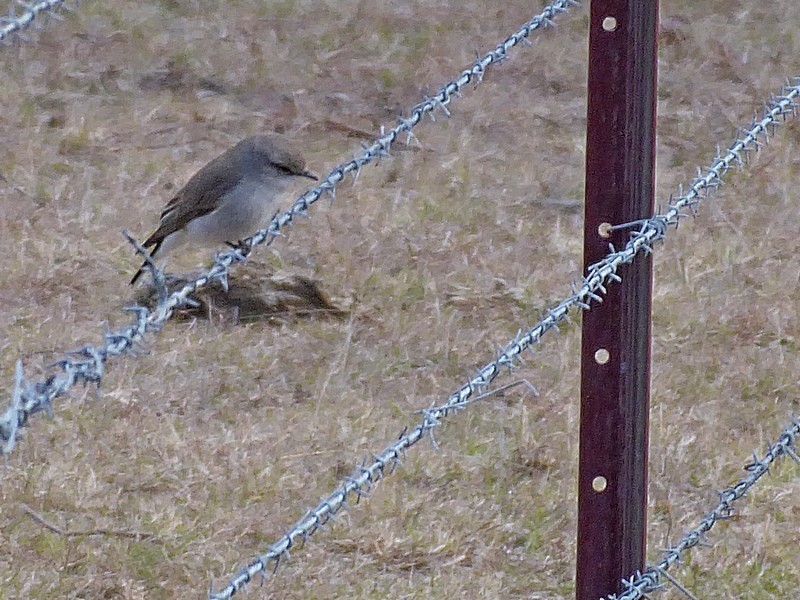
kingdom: Animalia
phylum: Chordata
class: Aves
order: Passeriformes
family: Petroicidae
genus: Microeca
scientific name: Microeca fascinans
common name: Jacky winter
